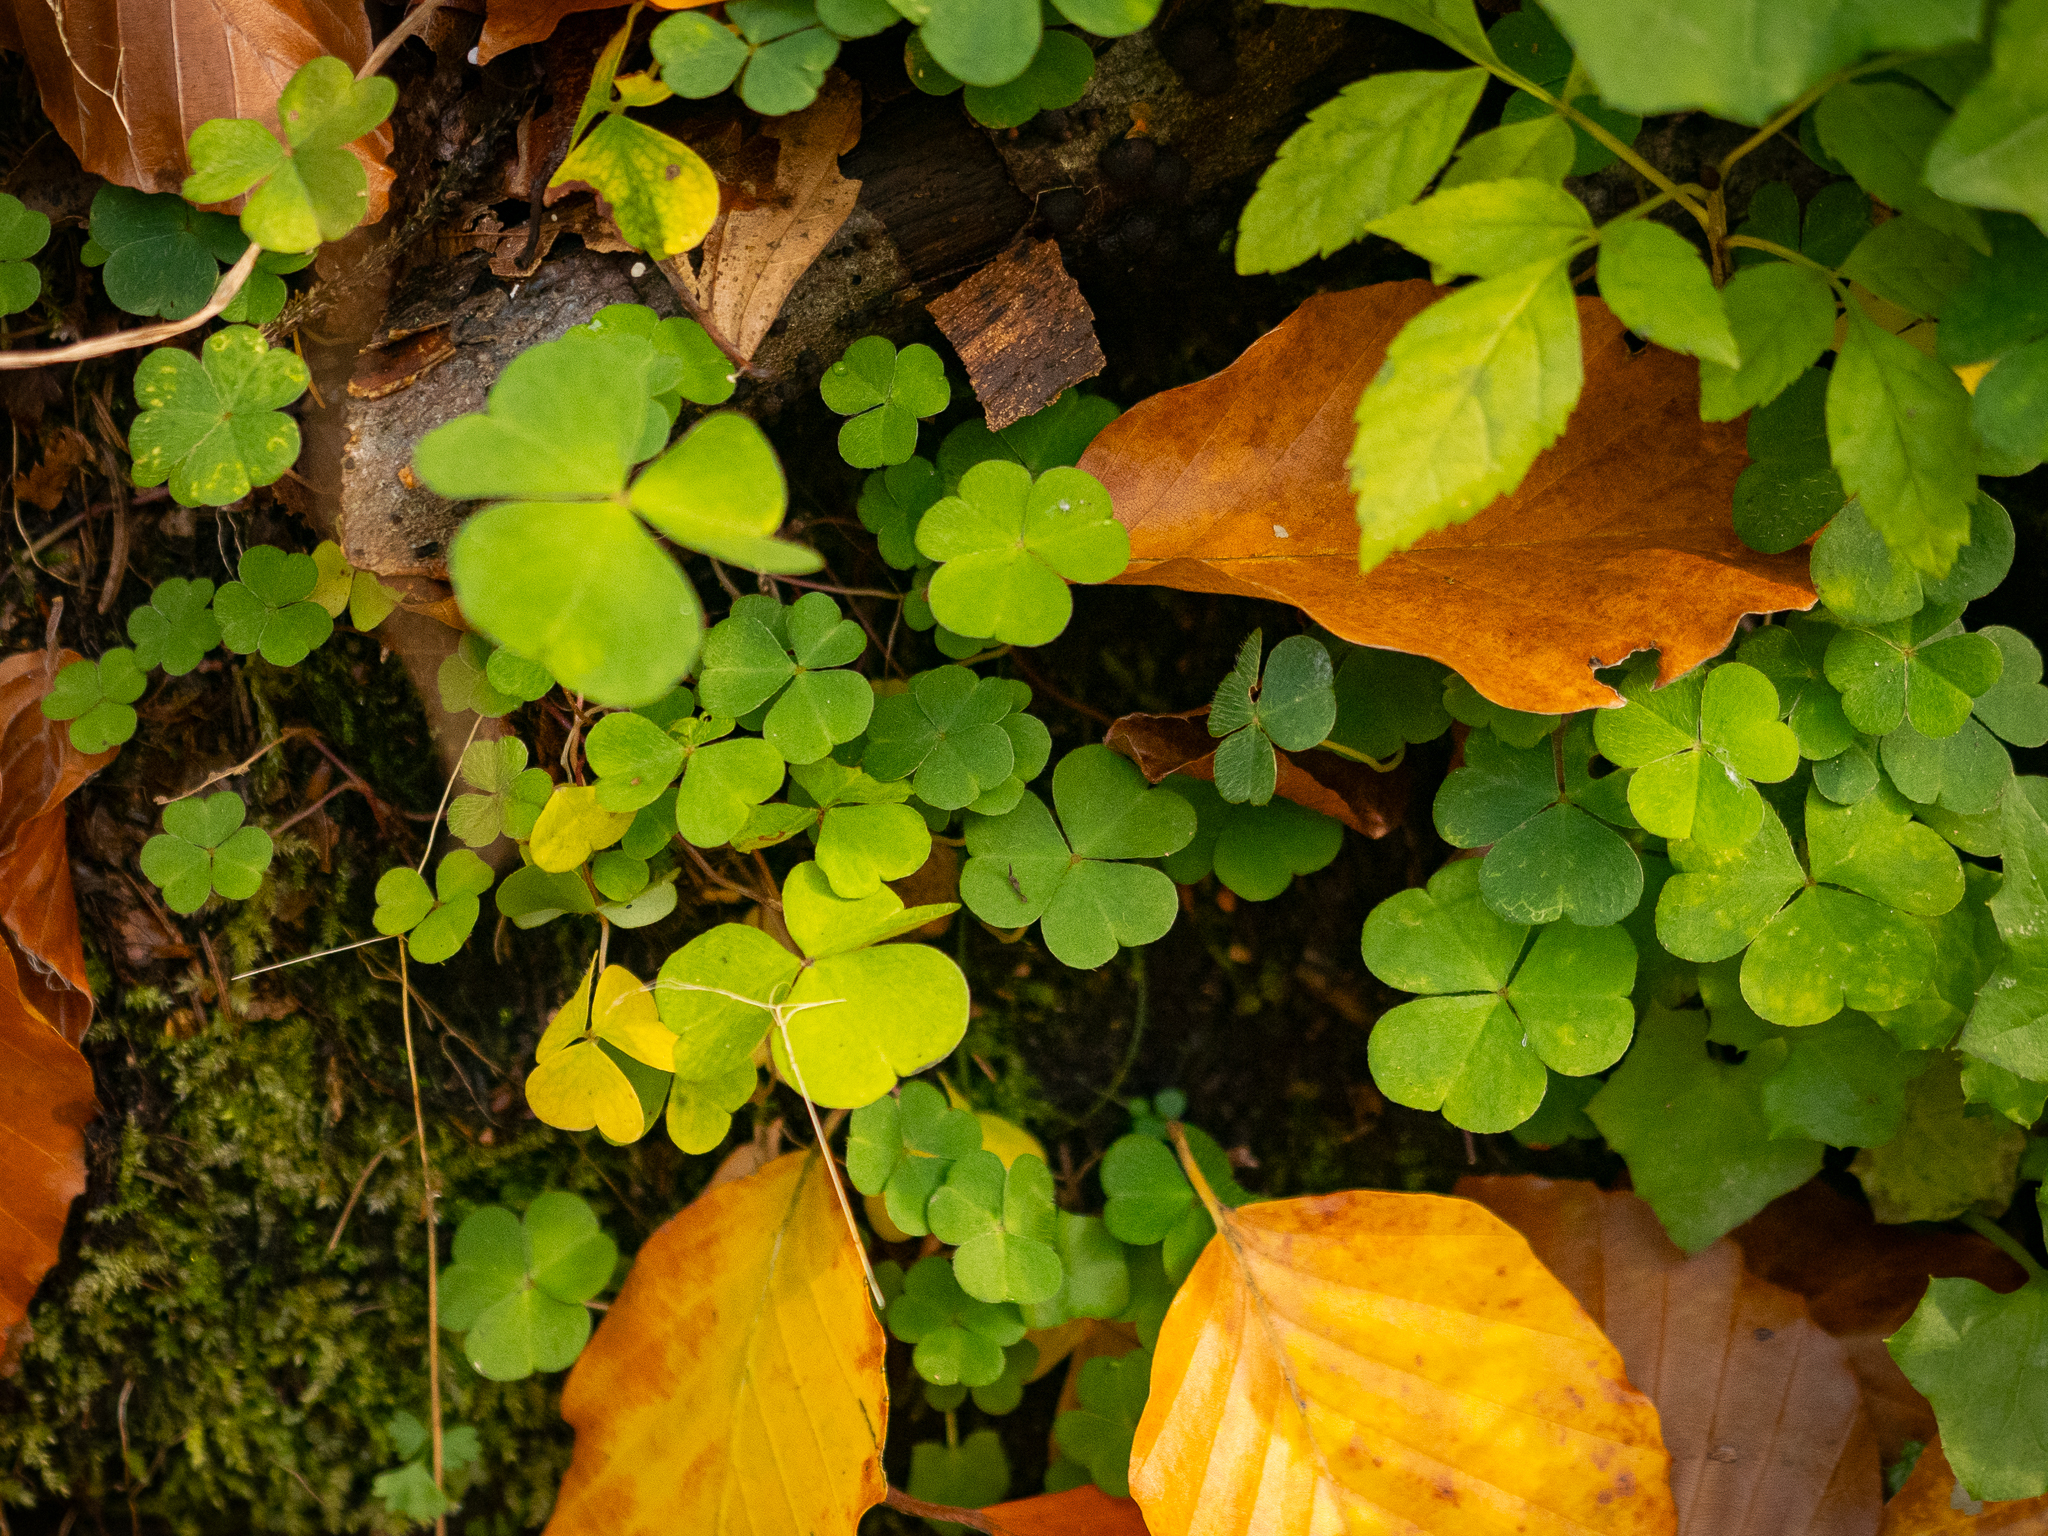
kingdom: Plantae
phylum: Tracheophyta
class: Magnoliopsida
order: Oxalidales
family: Oxalidaceae
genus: Oxalis
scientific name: Oxalis acetosella
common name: Wood-sorrel
